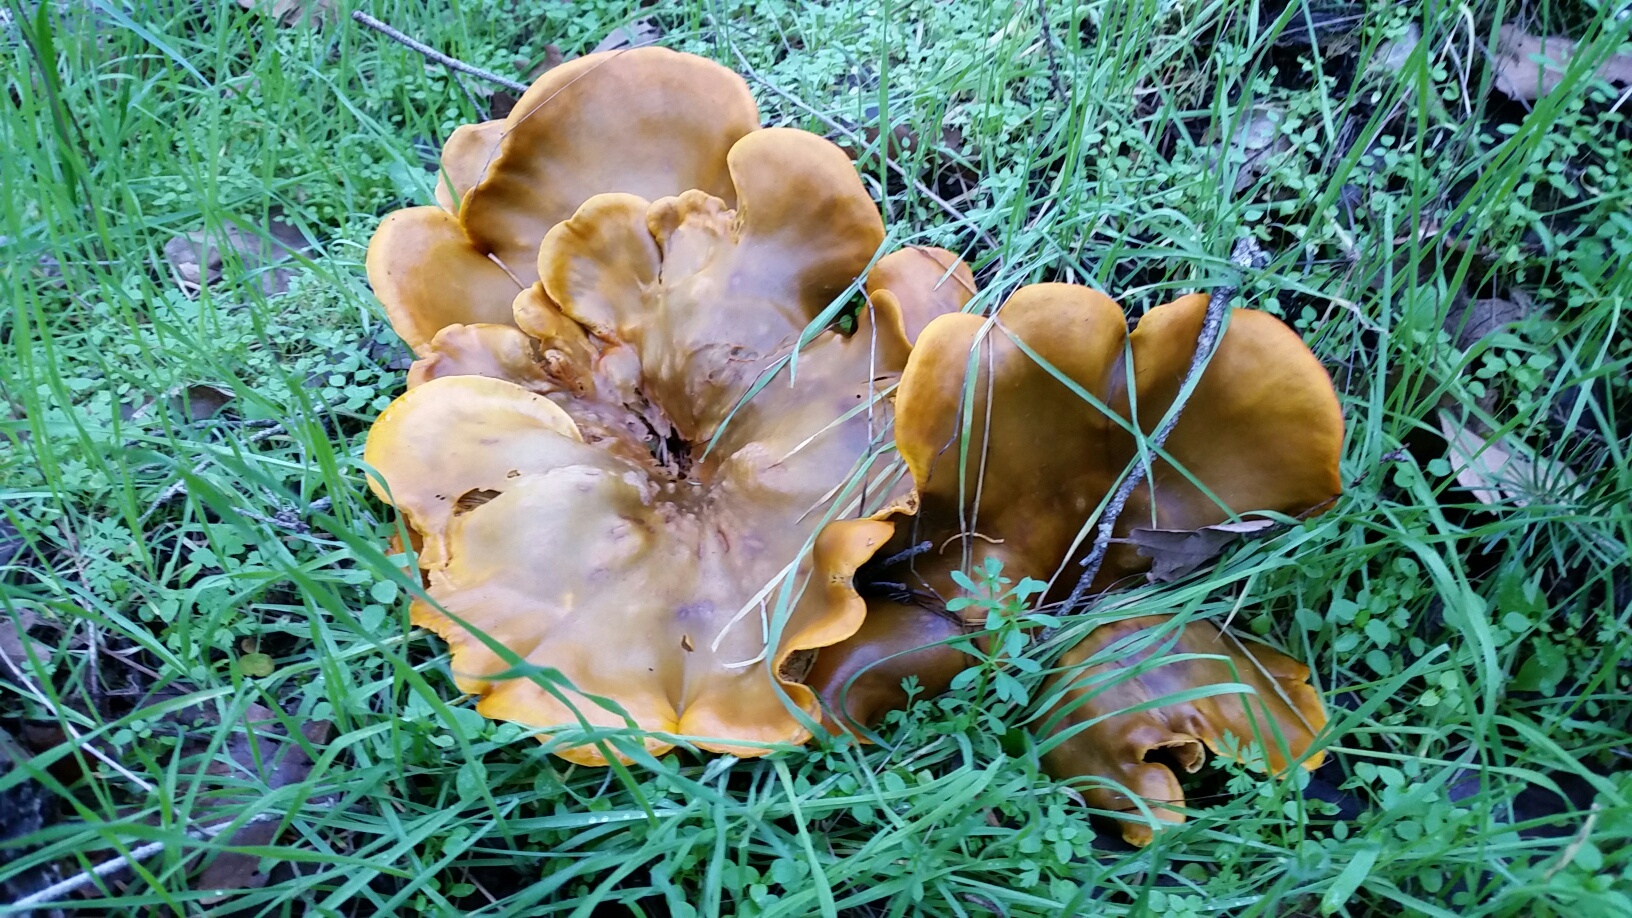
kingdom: Fungi
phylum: Basidiomycota
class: Agaricomycetes
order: Agaricales
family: Omphalotaceae
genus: Omphalotus
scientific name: Omphalotus olivascens
